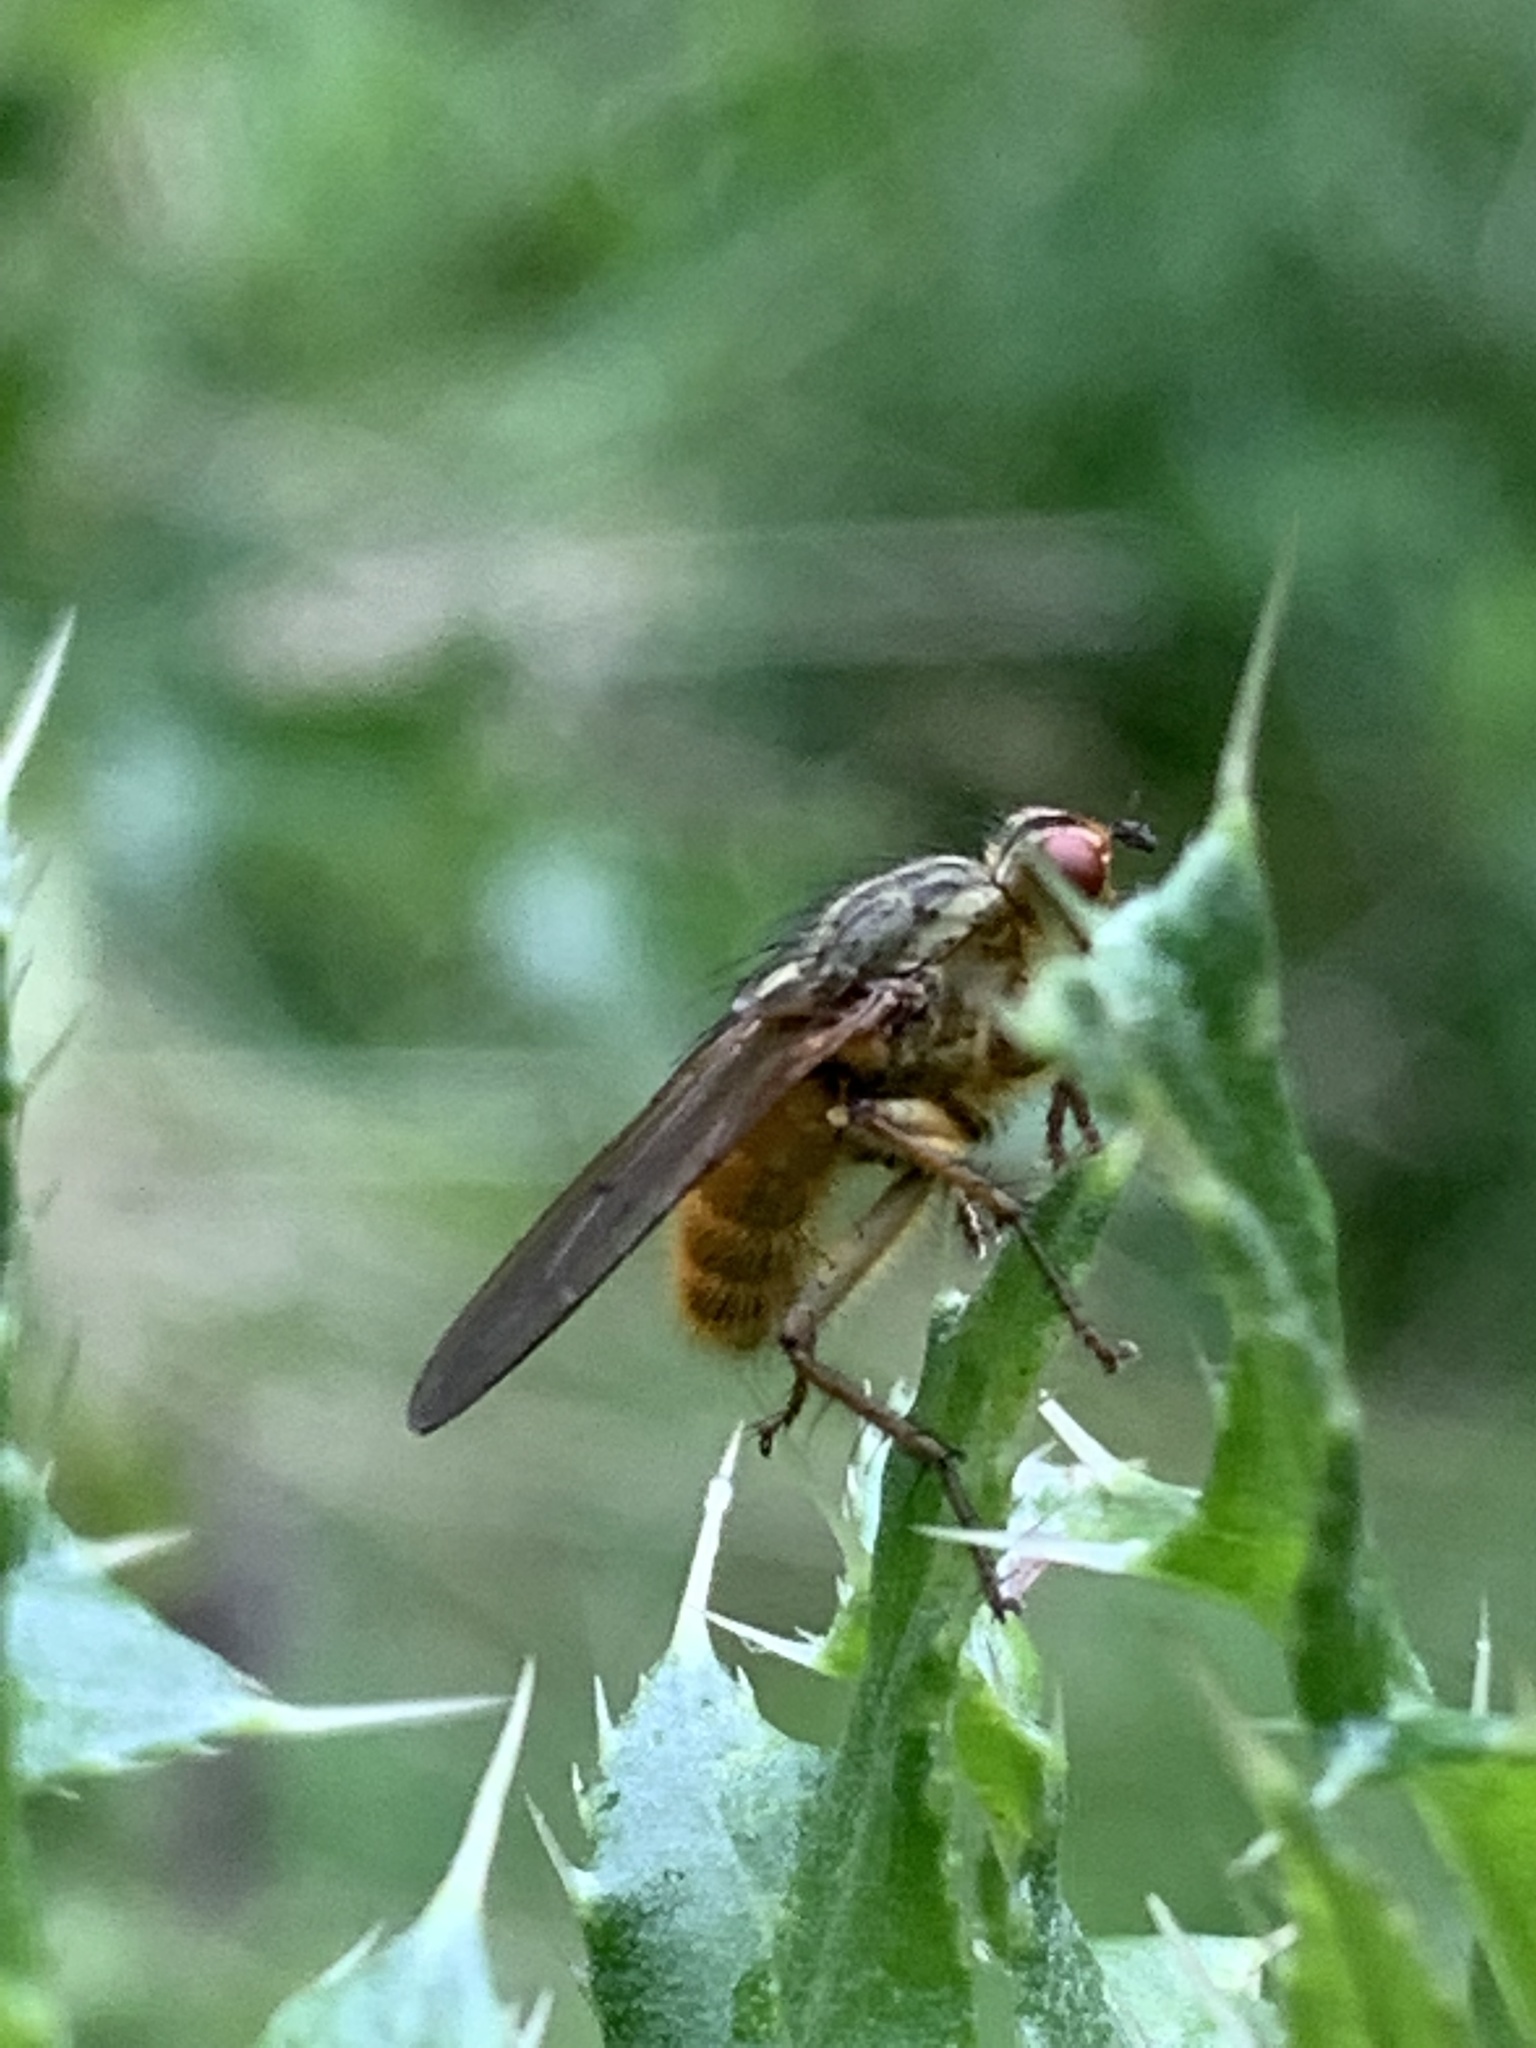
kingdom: Animalia
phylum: Arthropoda
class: Insecta
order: Diptera
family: Scathophagidae
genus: Scathophaga
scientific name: Scathophaga stercoraria
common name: Yellow dung fly
